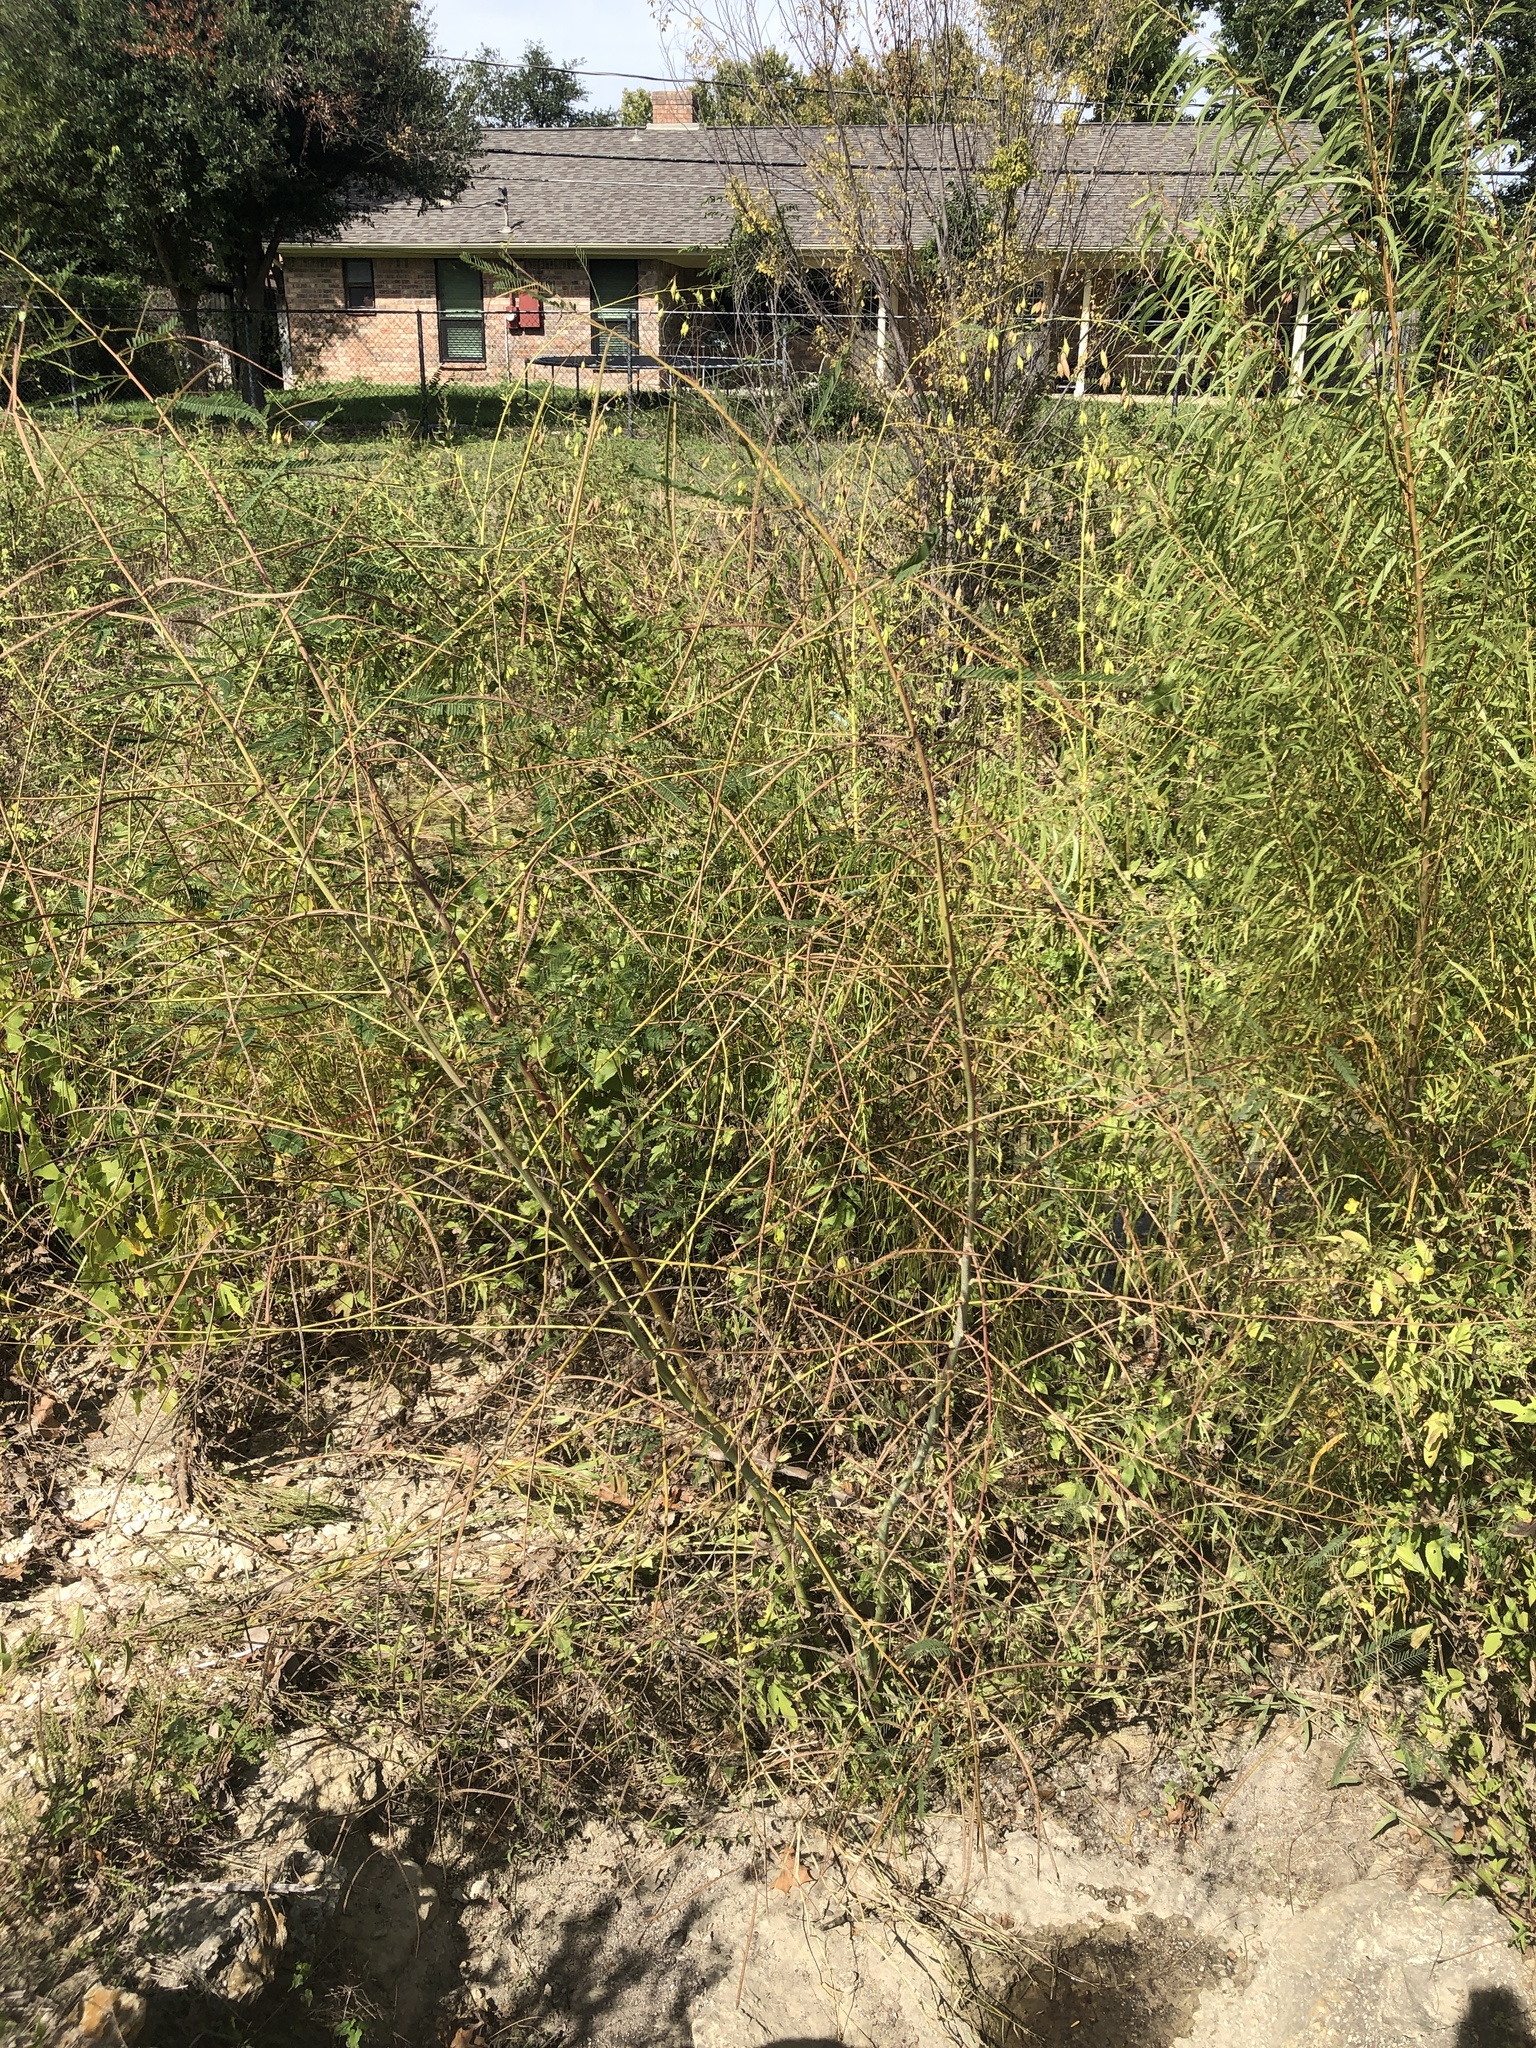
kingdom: Plantae
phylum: Tracheophyta
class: Magnoliopsida
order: Fabales
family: Fabaceae
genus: Sesbania
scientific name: Sesbania herbacea
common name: Bigpod sesbania
